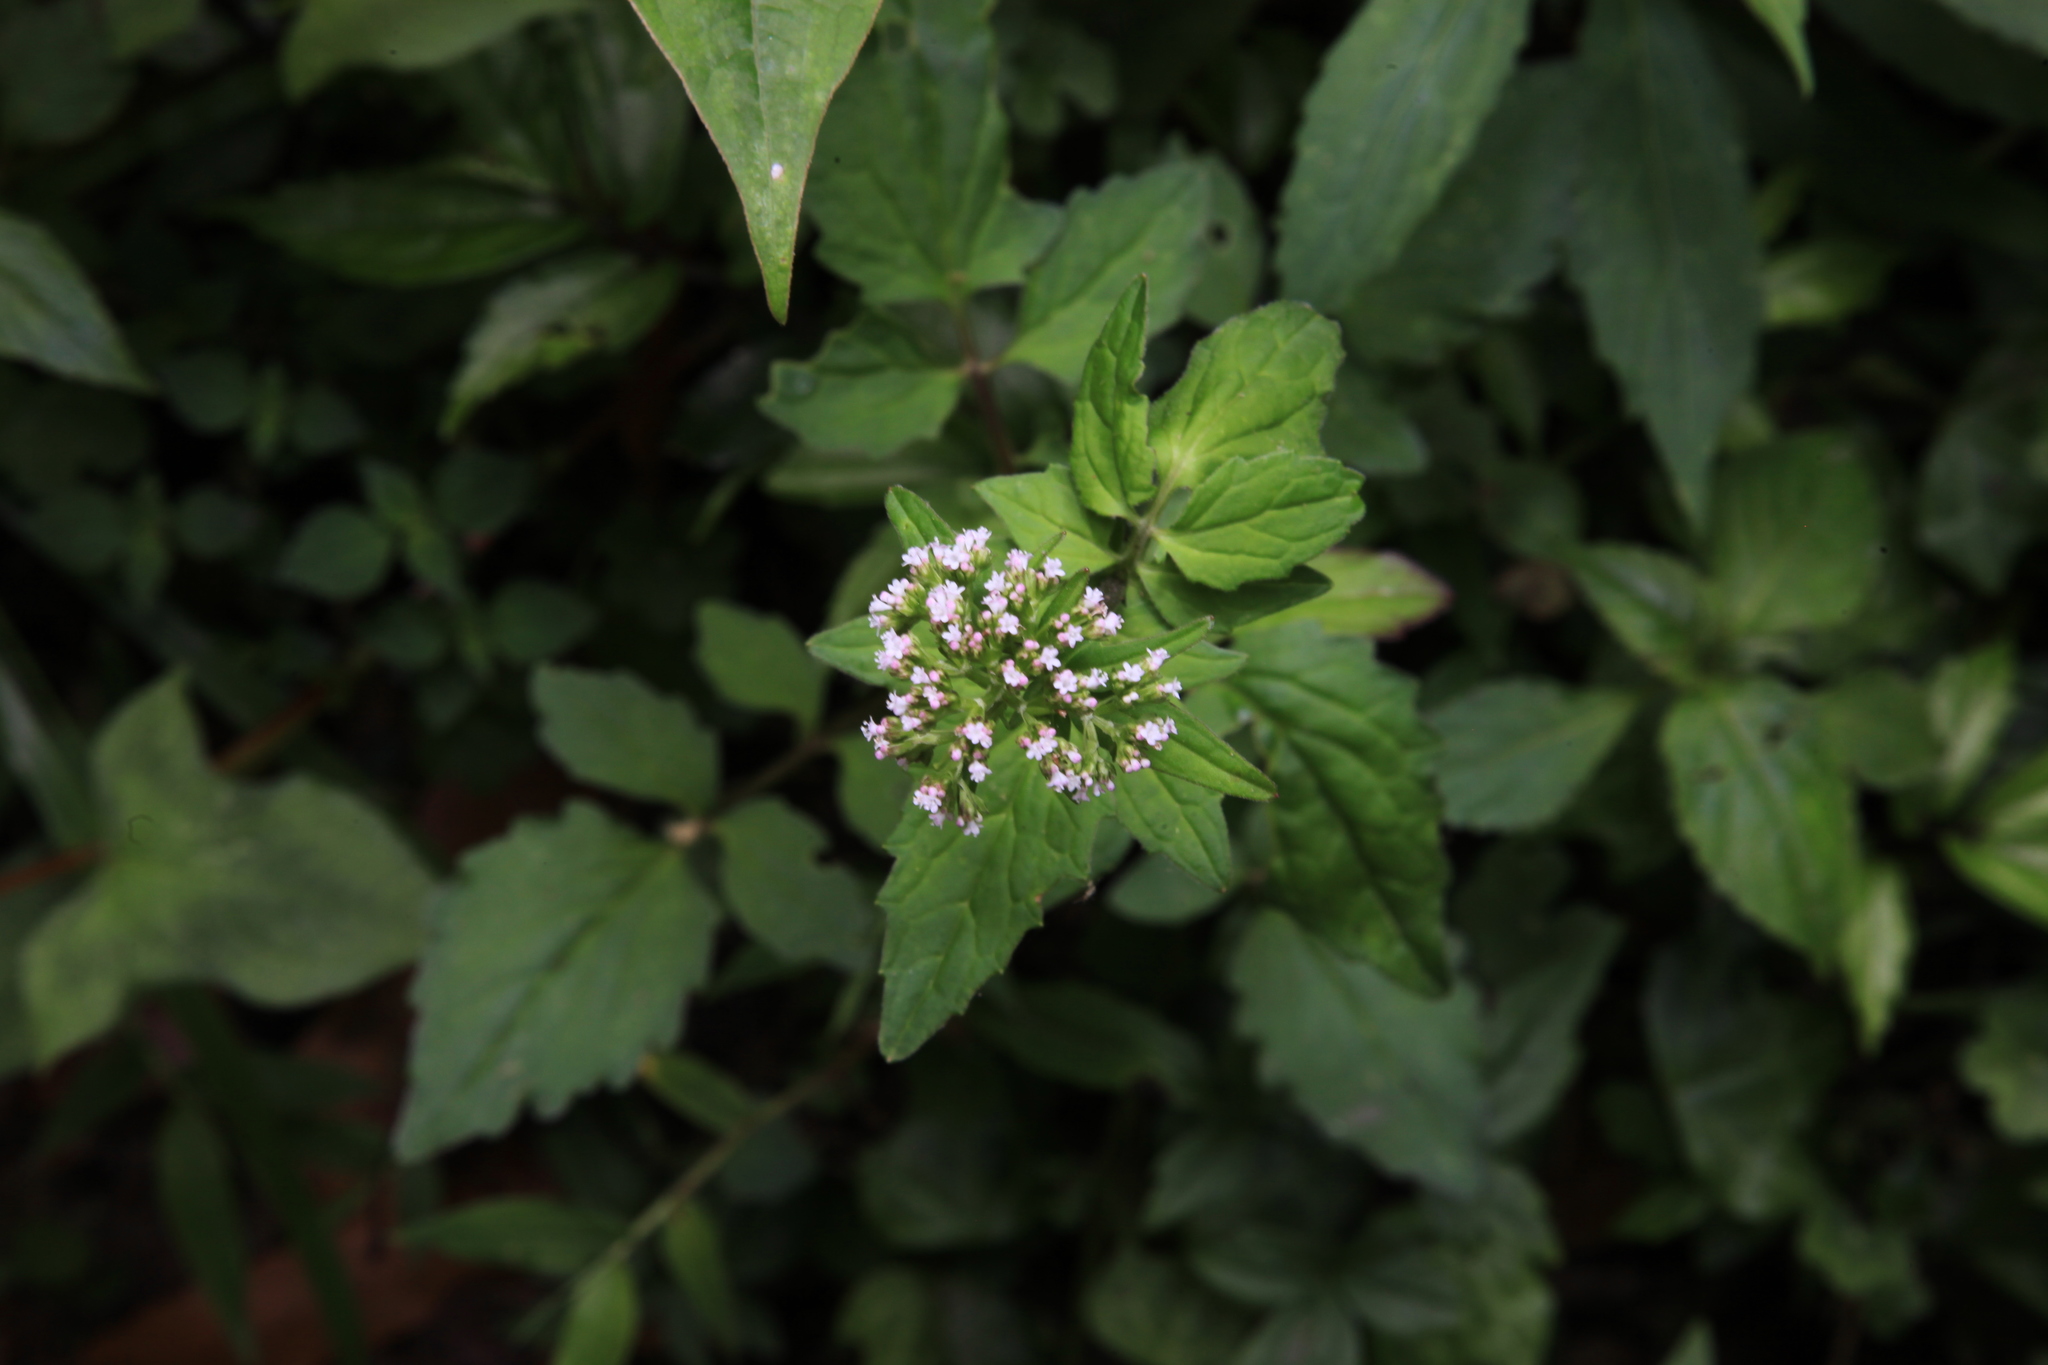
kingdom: Plantae
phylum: Tracheophyta
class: Magnoliopsida
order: Dipsacales
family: Caprifoliaceae
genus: Valeriana
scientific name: Valeriana flaccidissima
